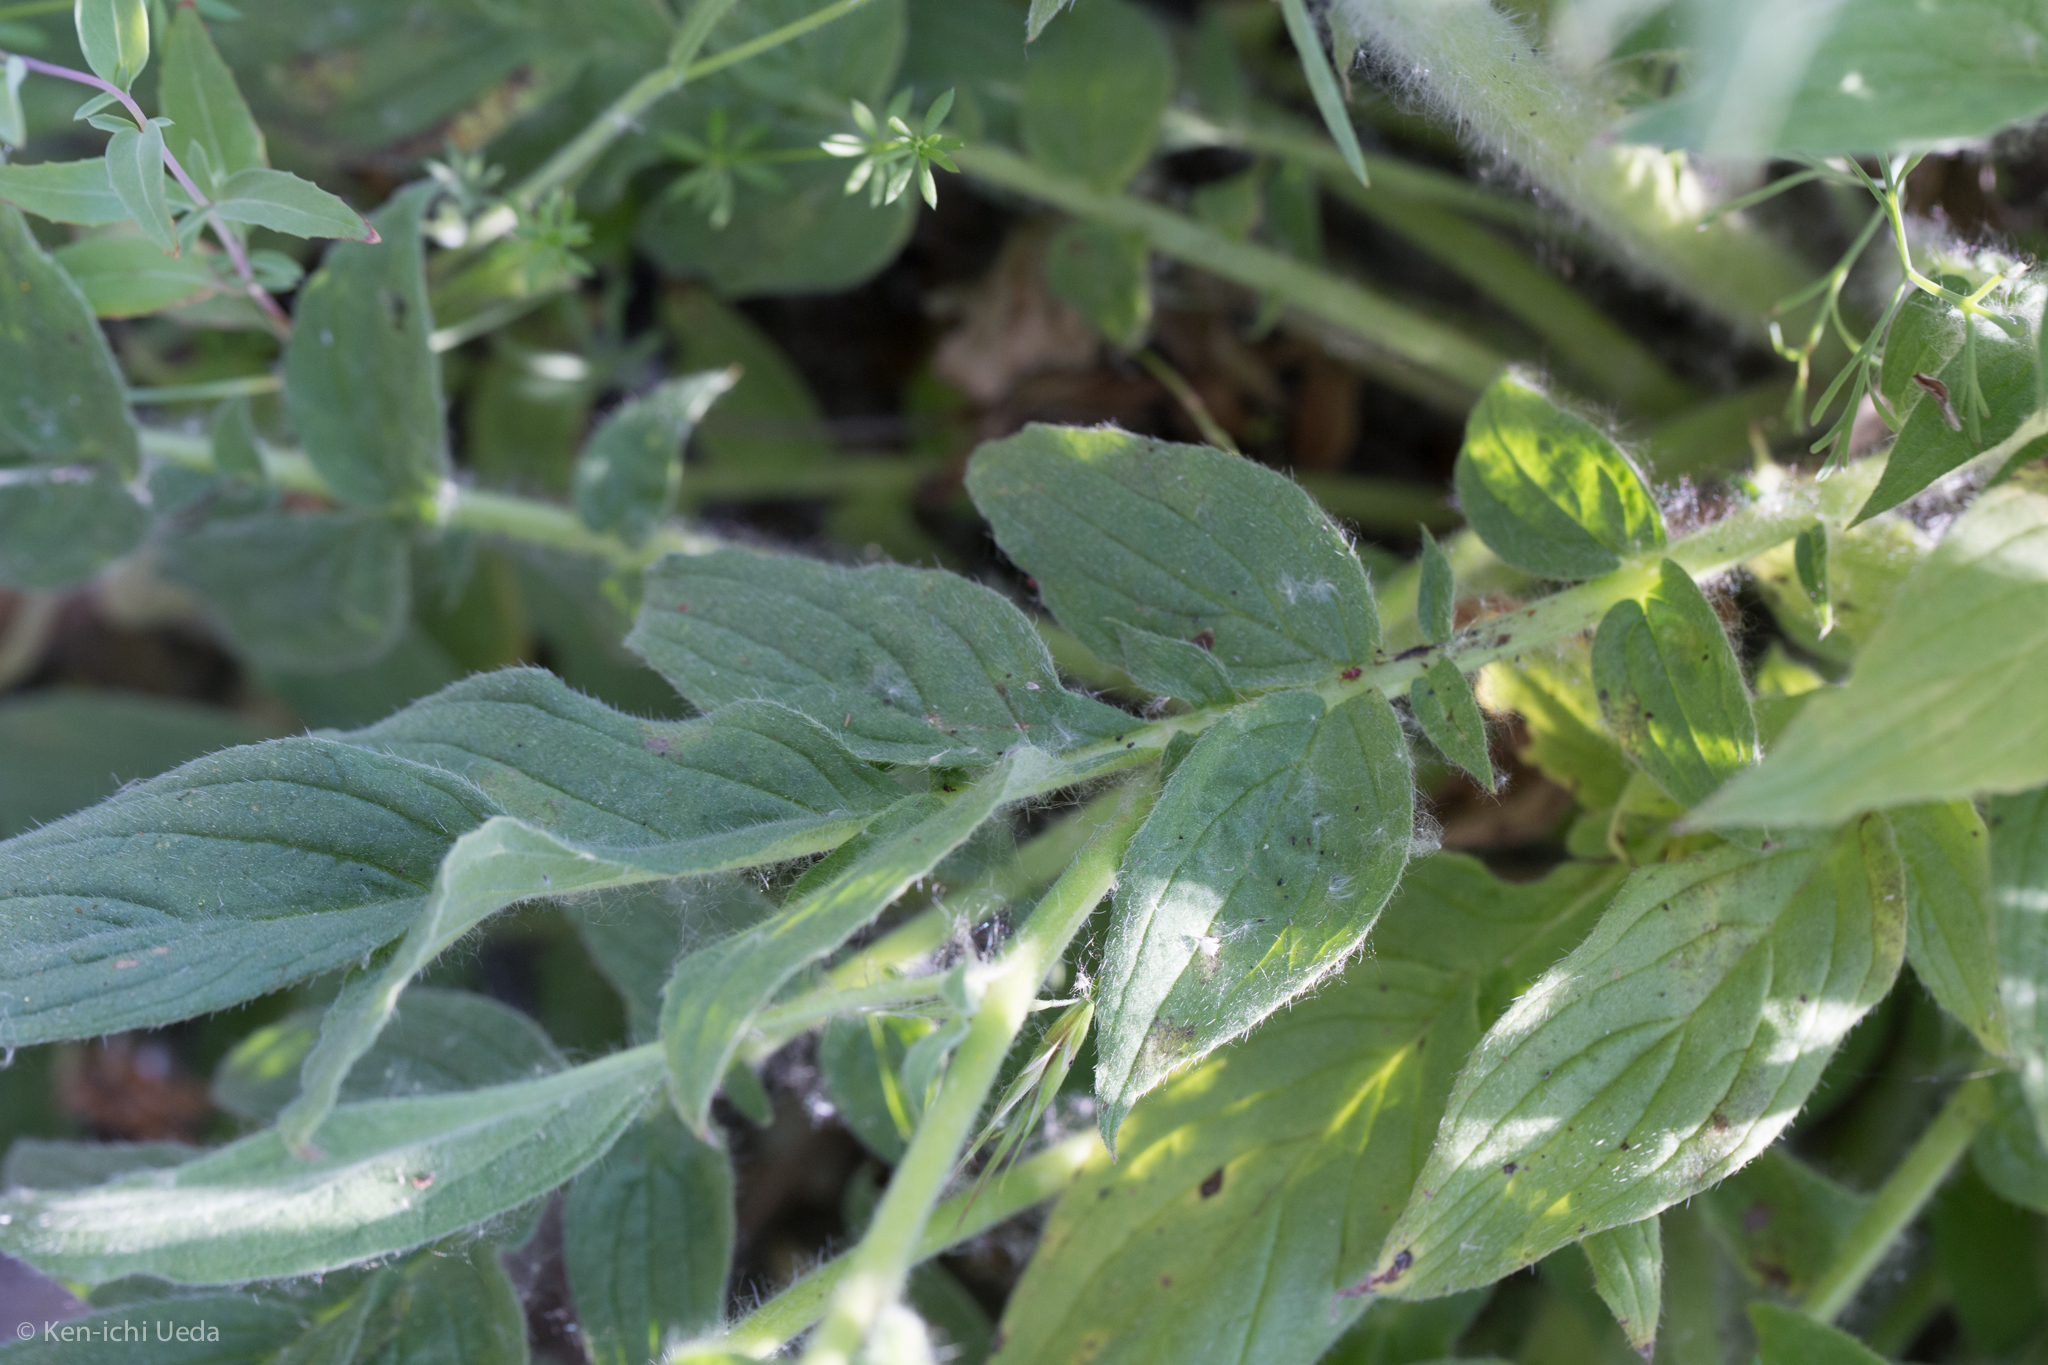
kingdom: Plantae
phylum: Tracheophyta
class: Magnoliopsida
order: Boraginales
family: Hydrophyllaceae
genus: Phacelia
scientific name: Phacelia imbricata
